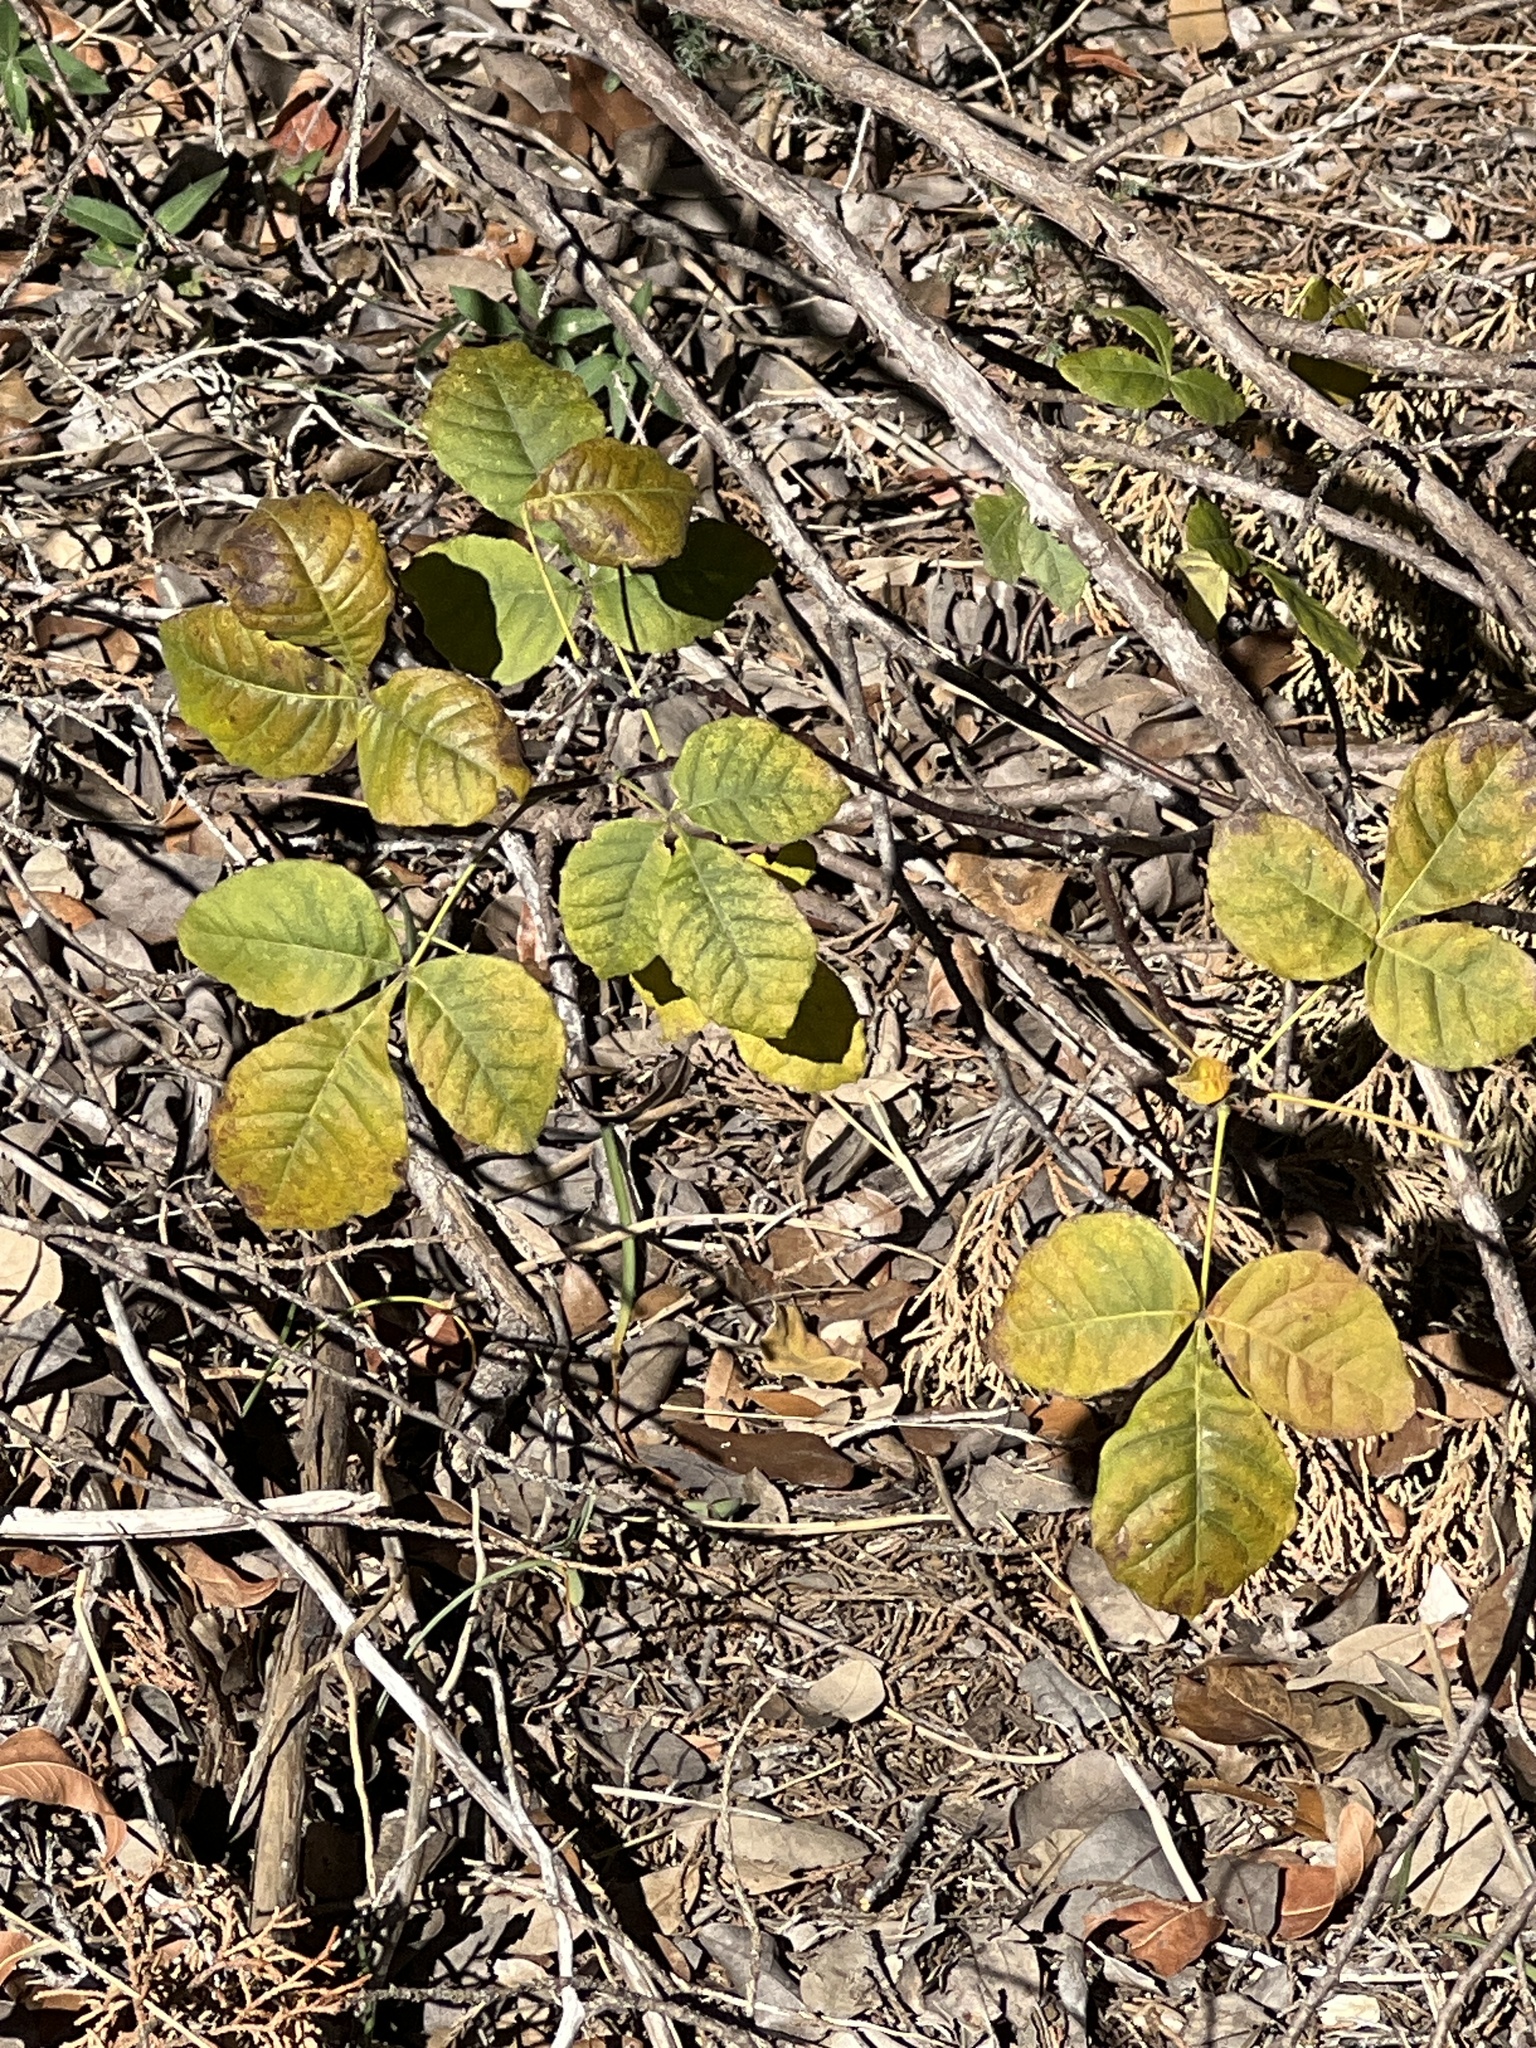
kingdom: Plantae
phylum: Tracheophyta
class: Magnoliopsida
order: Sapindales
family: Rutaceae
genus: Ptelea
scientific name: Ptelea trifoliata
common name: Common hop-tree
